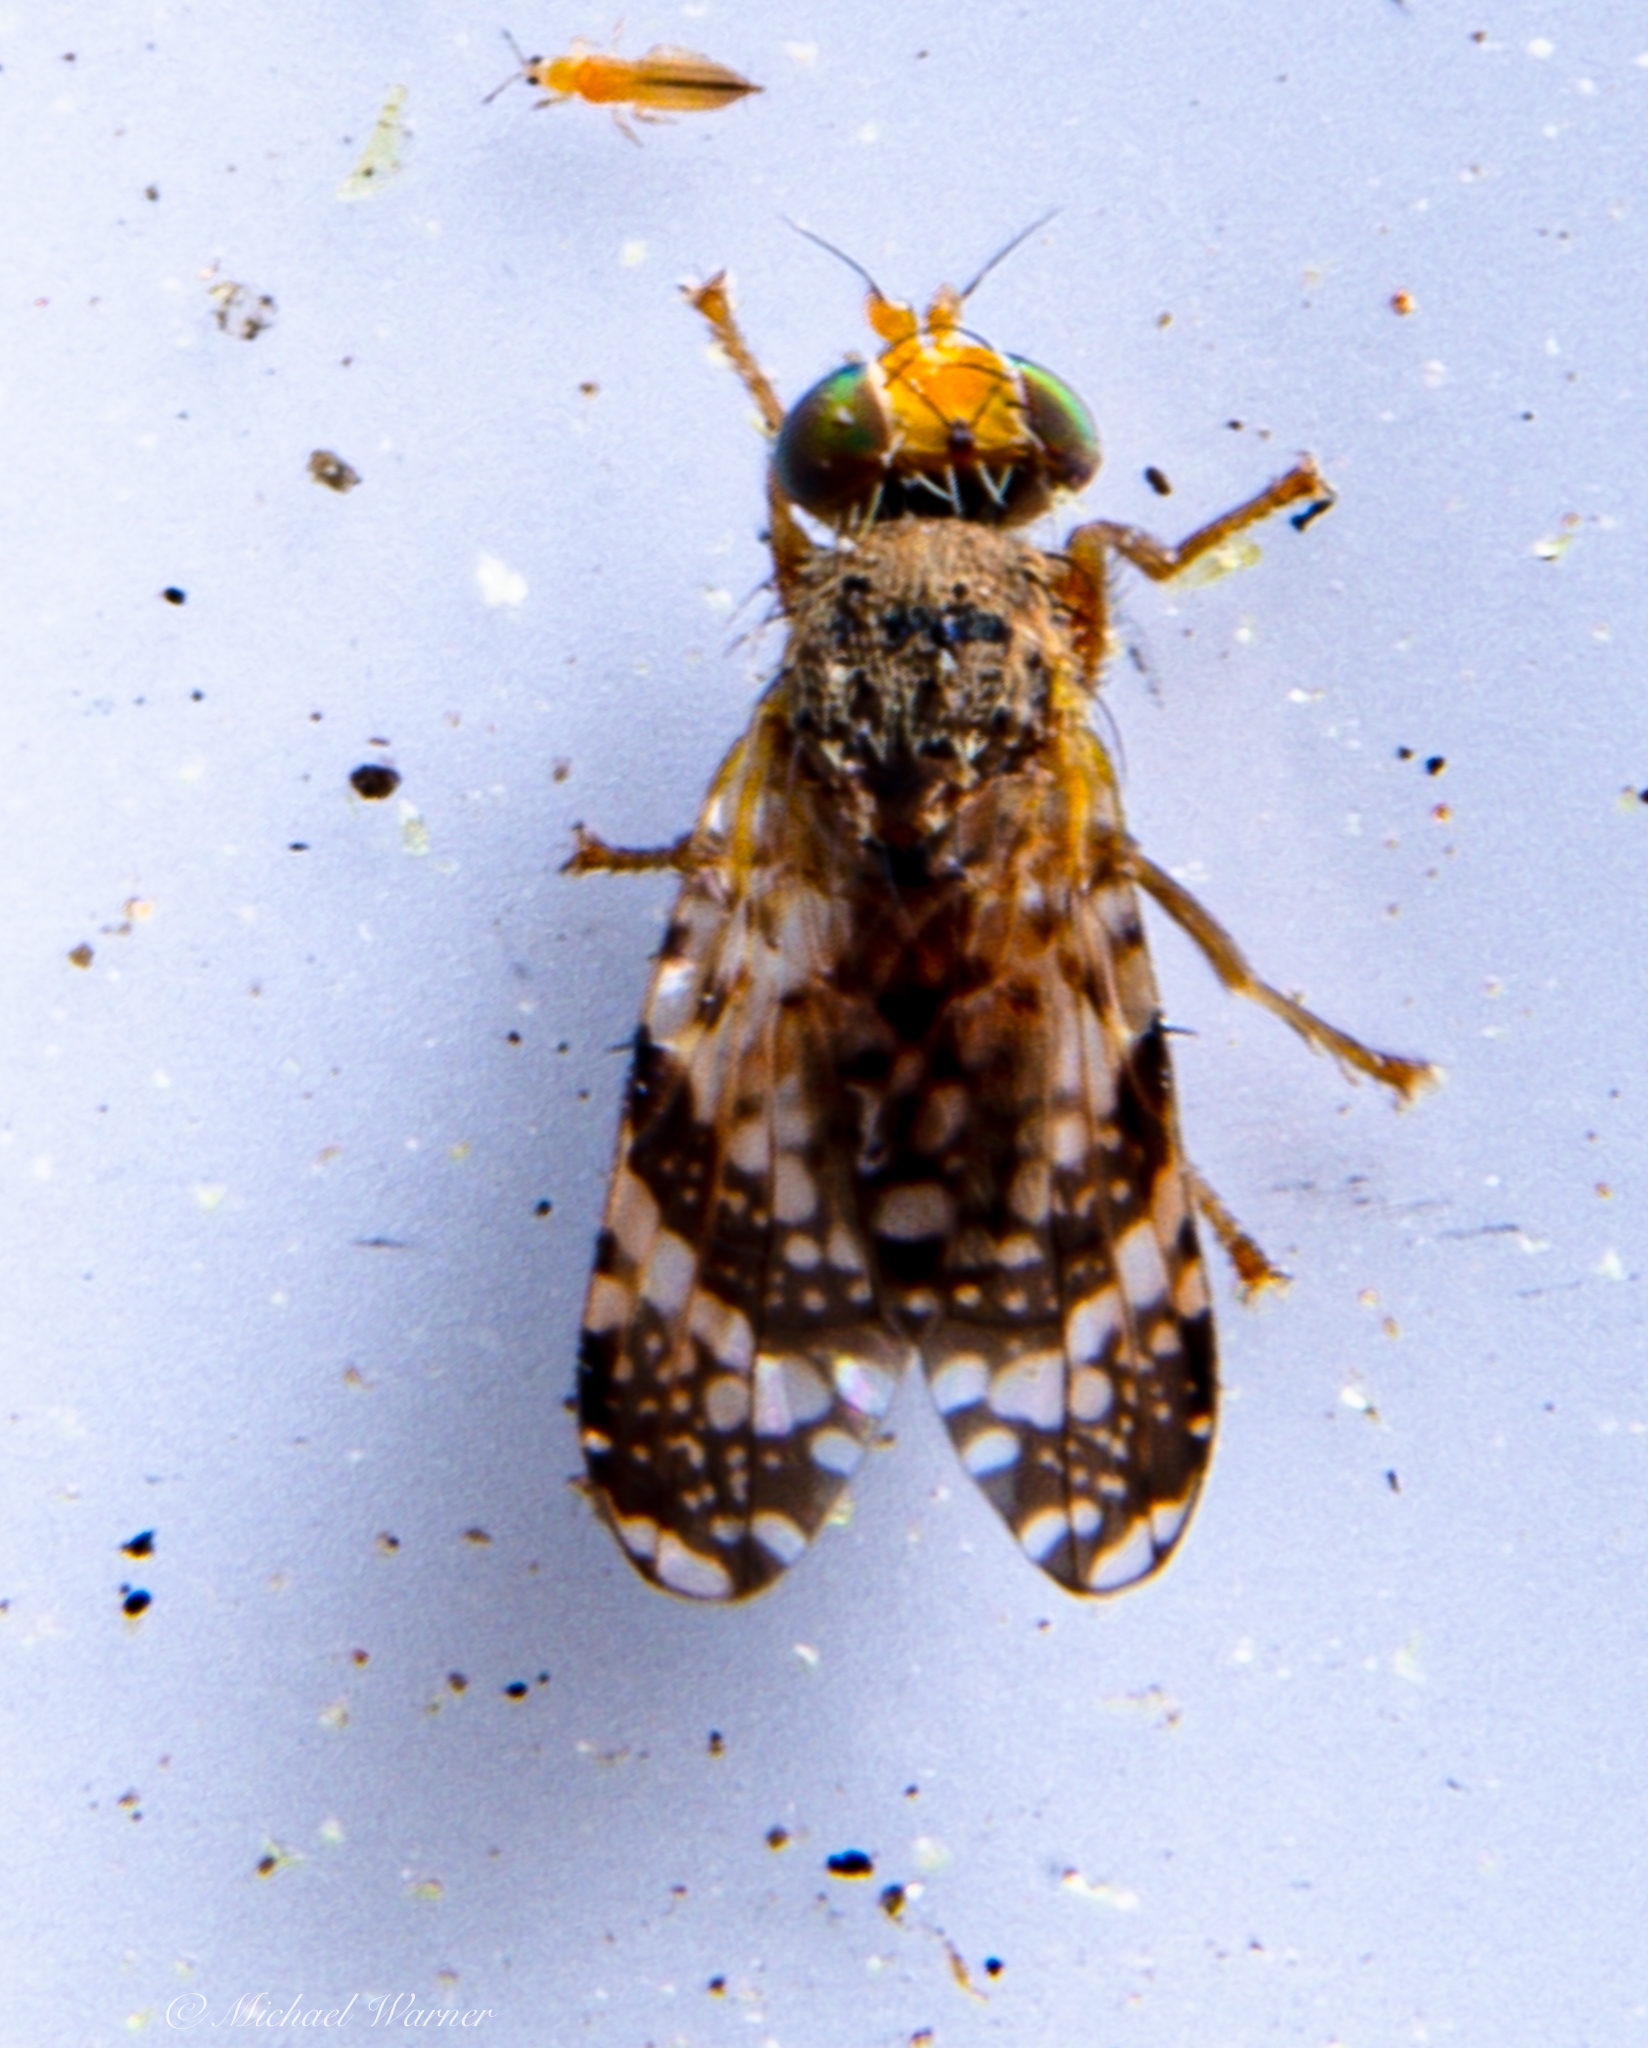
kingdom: Animalia
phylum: Arthropoda
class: Insecta
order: Diptera
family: Tephritidae
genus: Tephritis
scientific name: Tephritis californica
